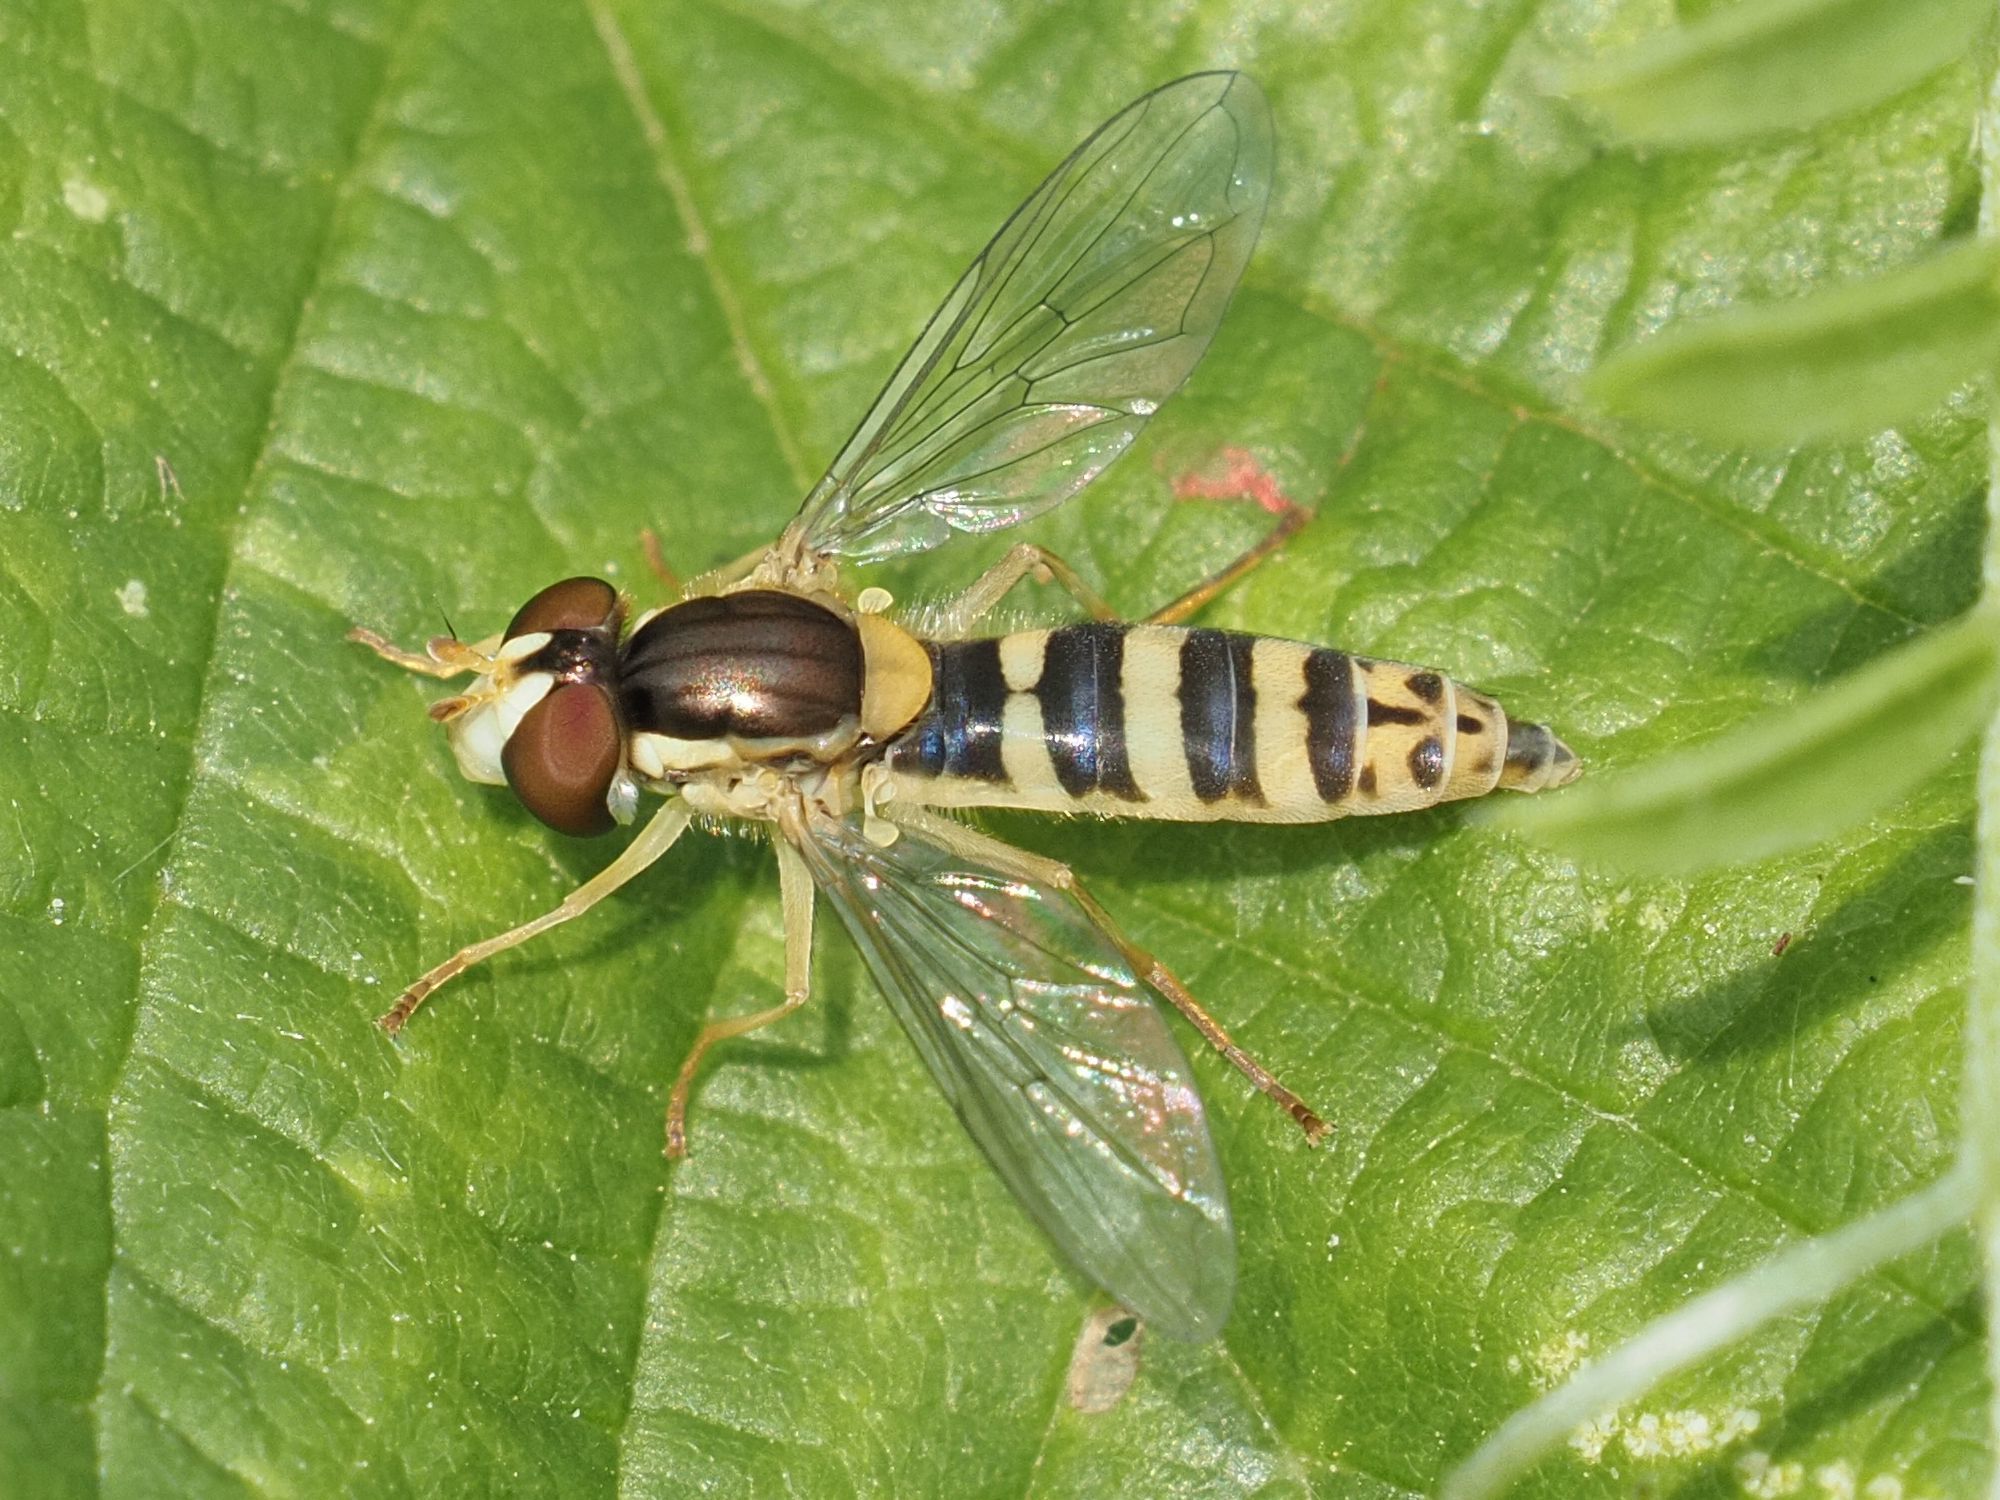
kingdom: Animalia
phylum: Arthropoda
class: Insecta
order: Diptera
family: Syrphidae
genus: Sphaerophoria
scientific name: Sphaerophoria
